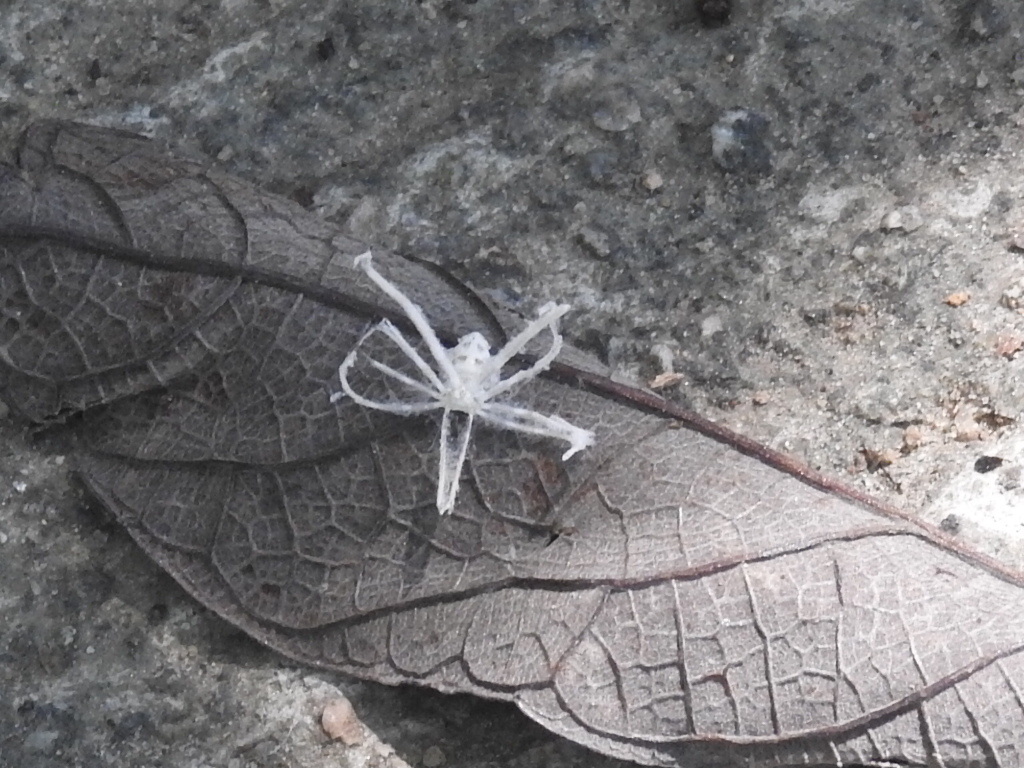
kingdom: Animalia
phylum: Arthropoda
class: Insecta
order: Hemiptera
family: Ricaniidae
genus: Ricania
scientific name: Ricania guttata
